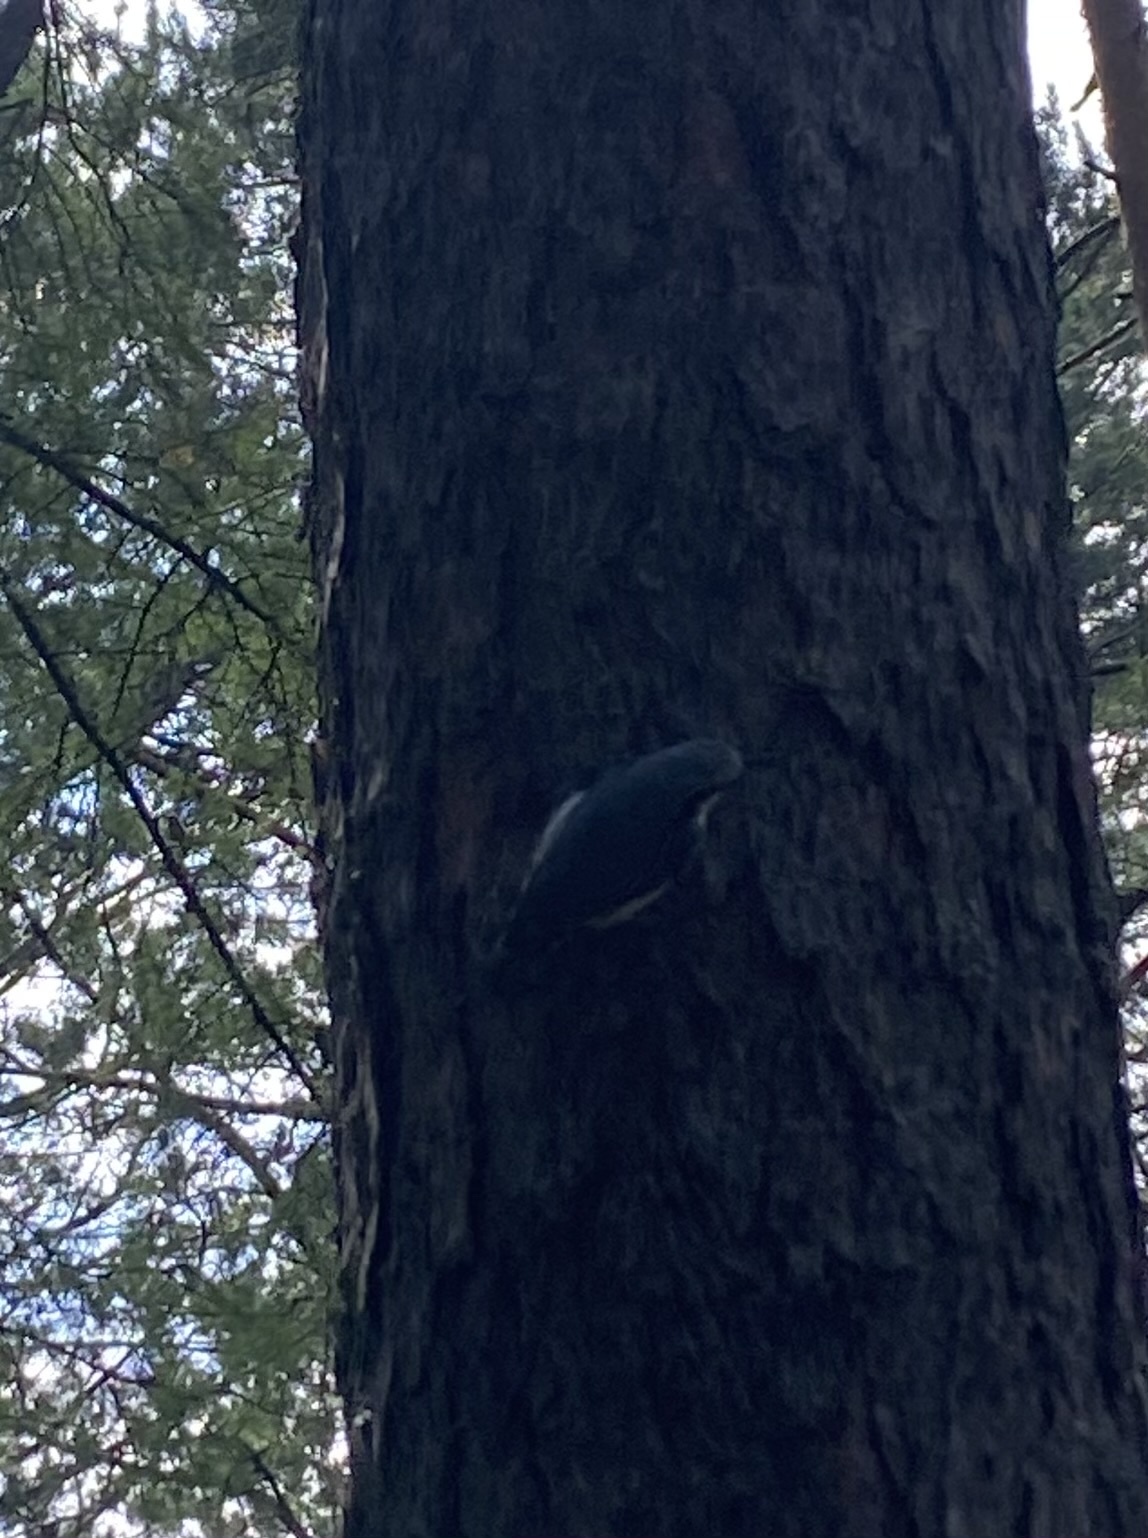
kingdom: Animalia
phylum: Chordata
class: Aves
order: Passeriformes
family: Sittidae
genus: Sitta
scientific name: Sitta europaea
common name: Eurasian nuthatch
